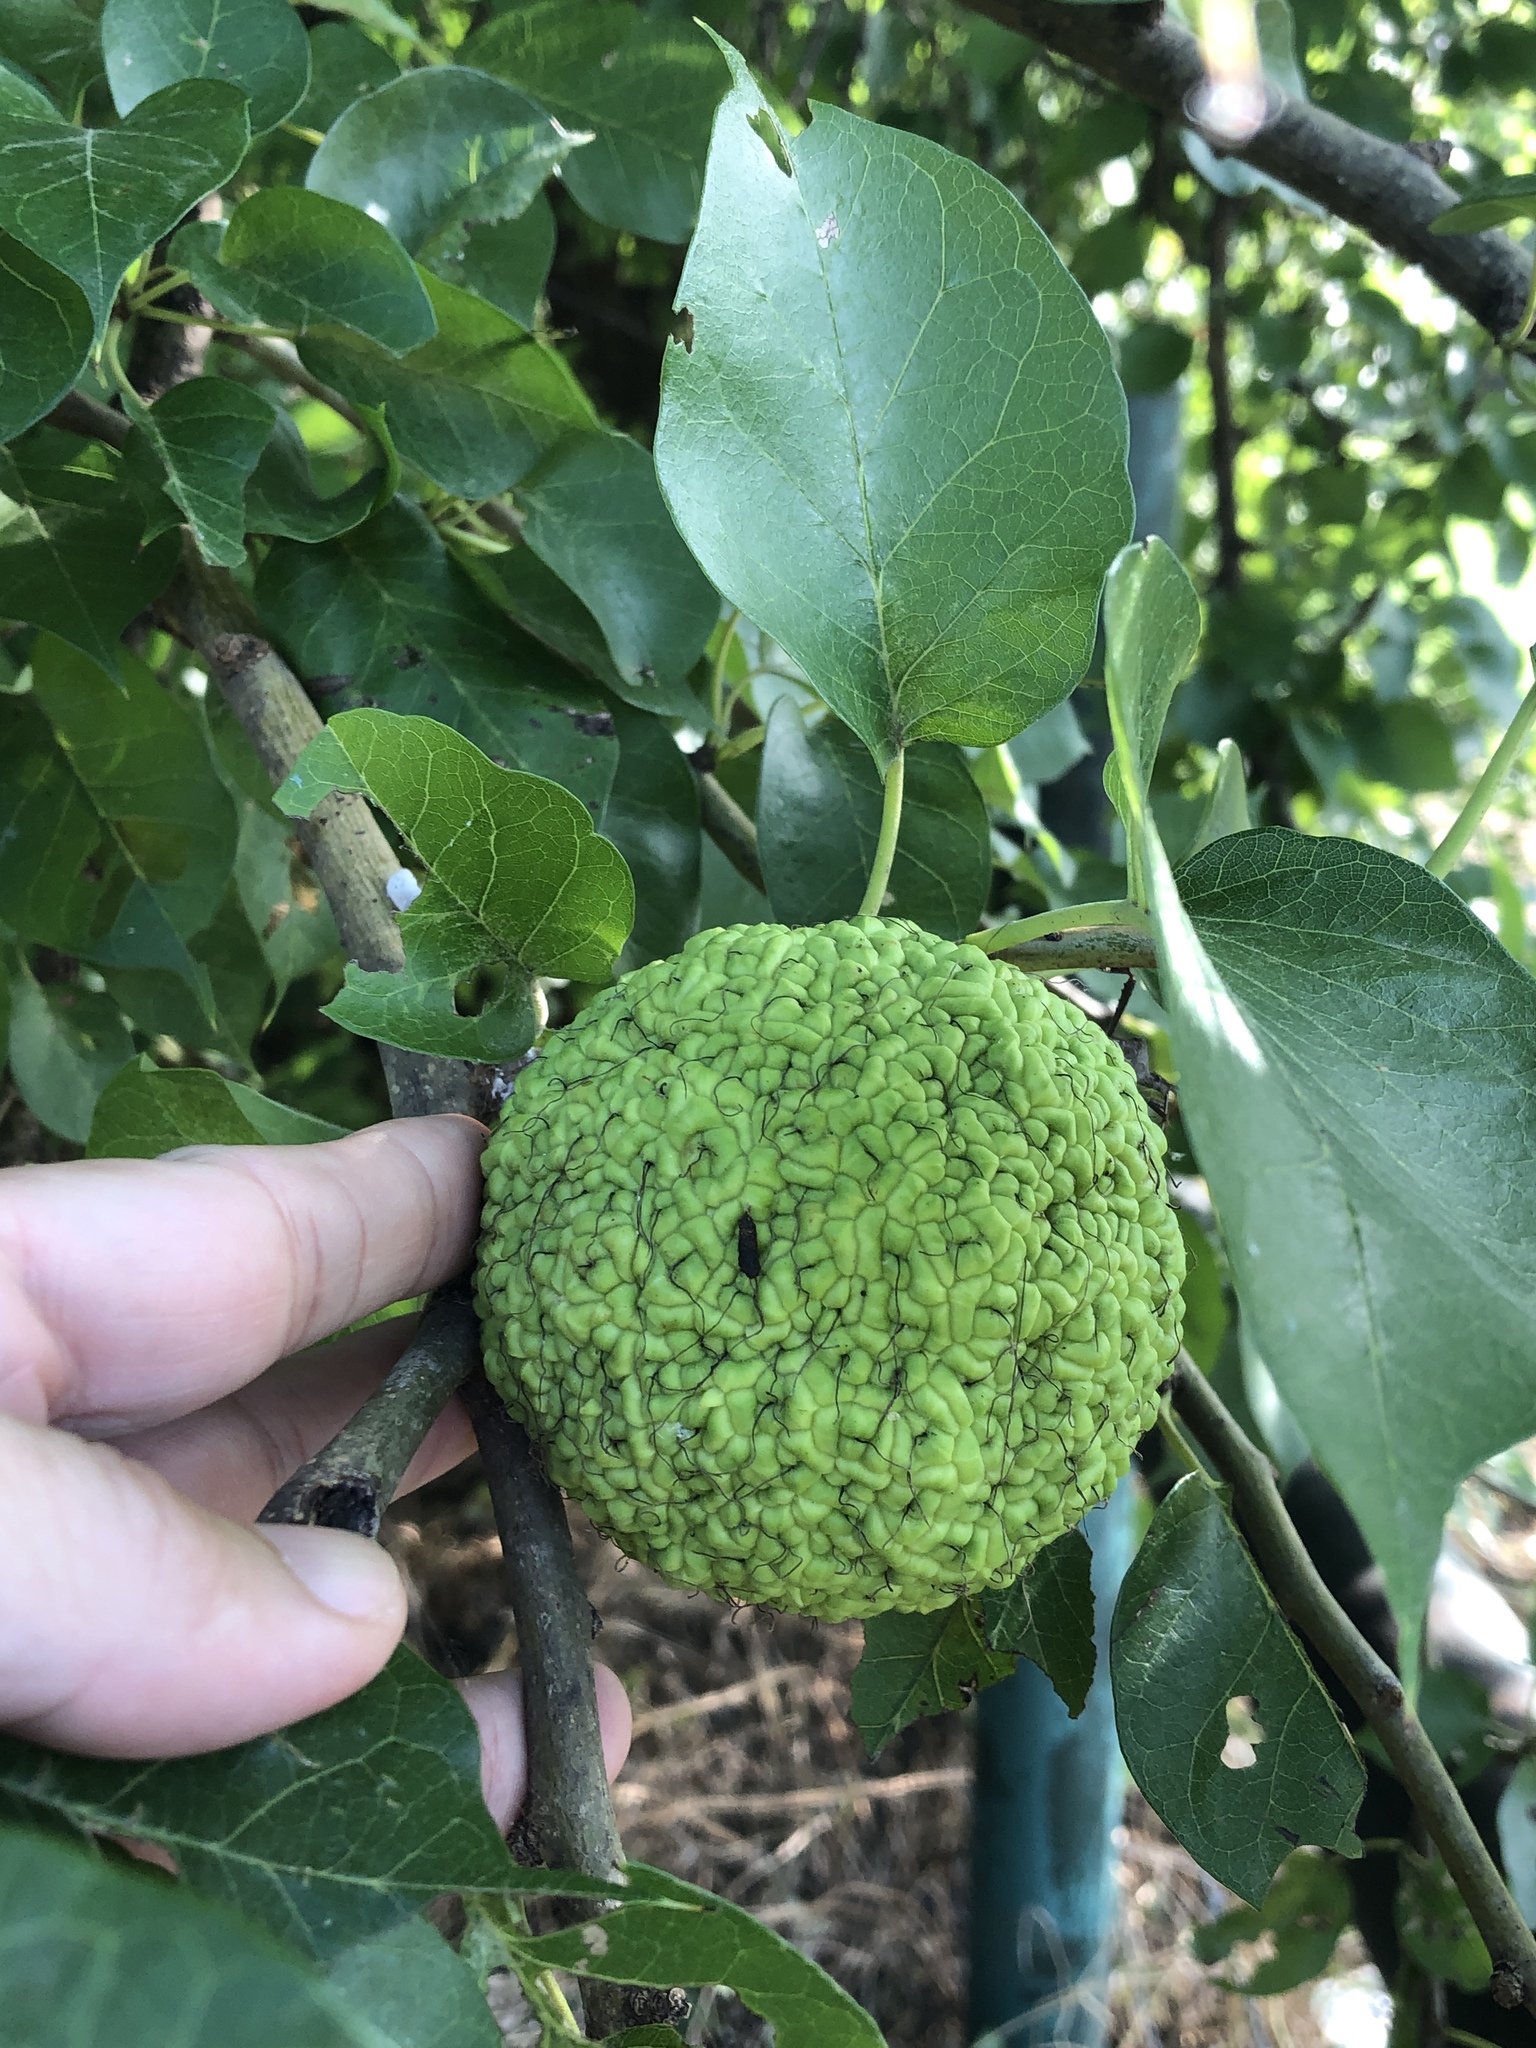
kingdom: Plantae
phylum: Tracheophyta
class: Magnoliopsida
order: Rosales
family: Moraceae
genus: Maclura
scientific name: Maclura pomifera
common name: Osage-orange
